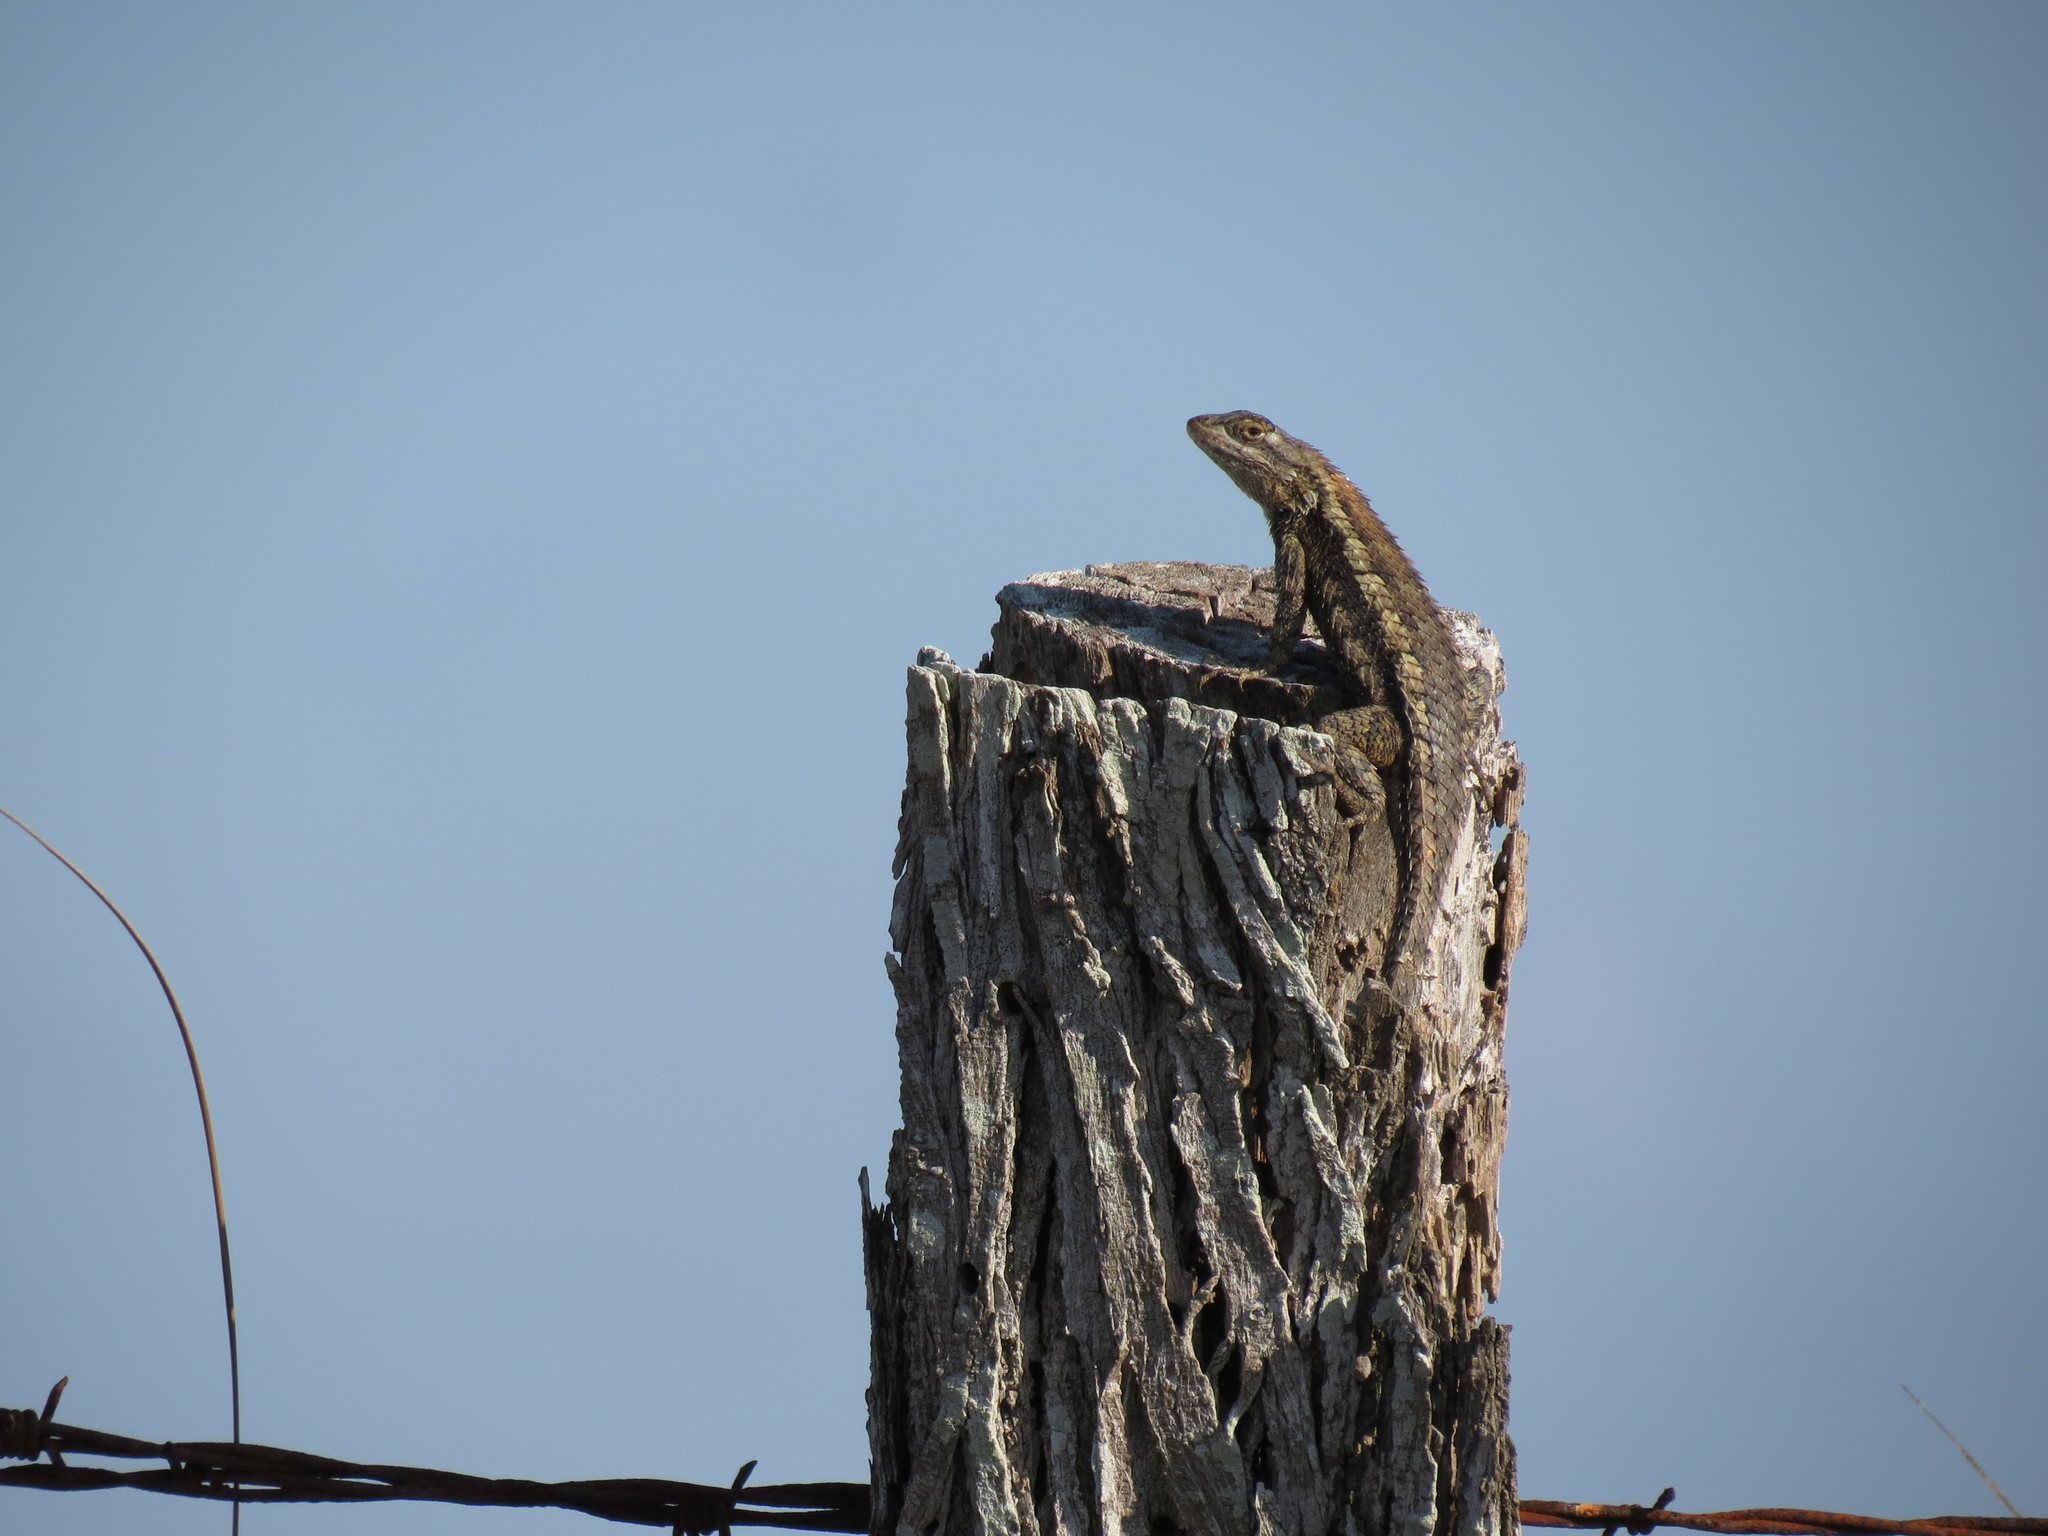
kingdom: Animalia
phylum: Chordata
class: Squamata
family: Phrynosomatidae
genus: Sceloporus
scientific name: Sceloporus olivaceus
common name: Texas spiny lizard
